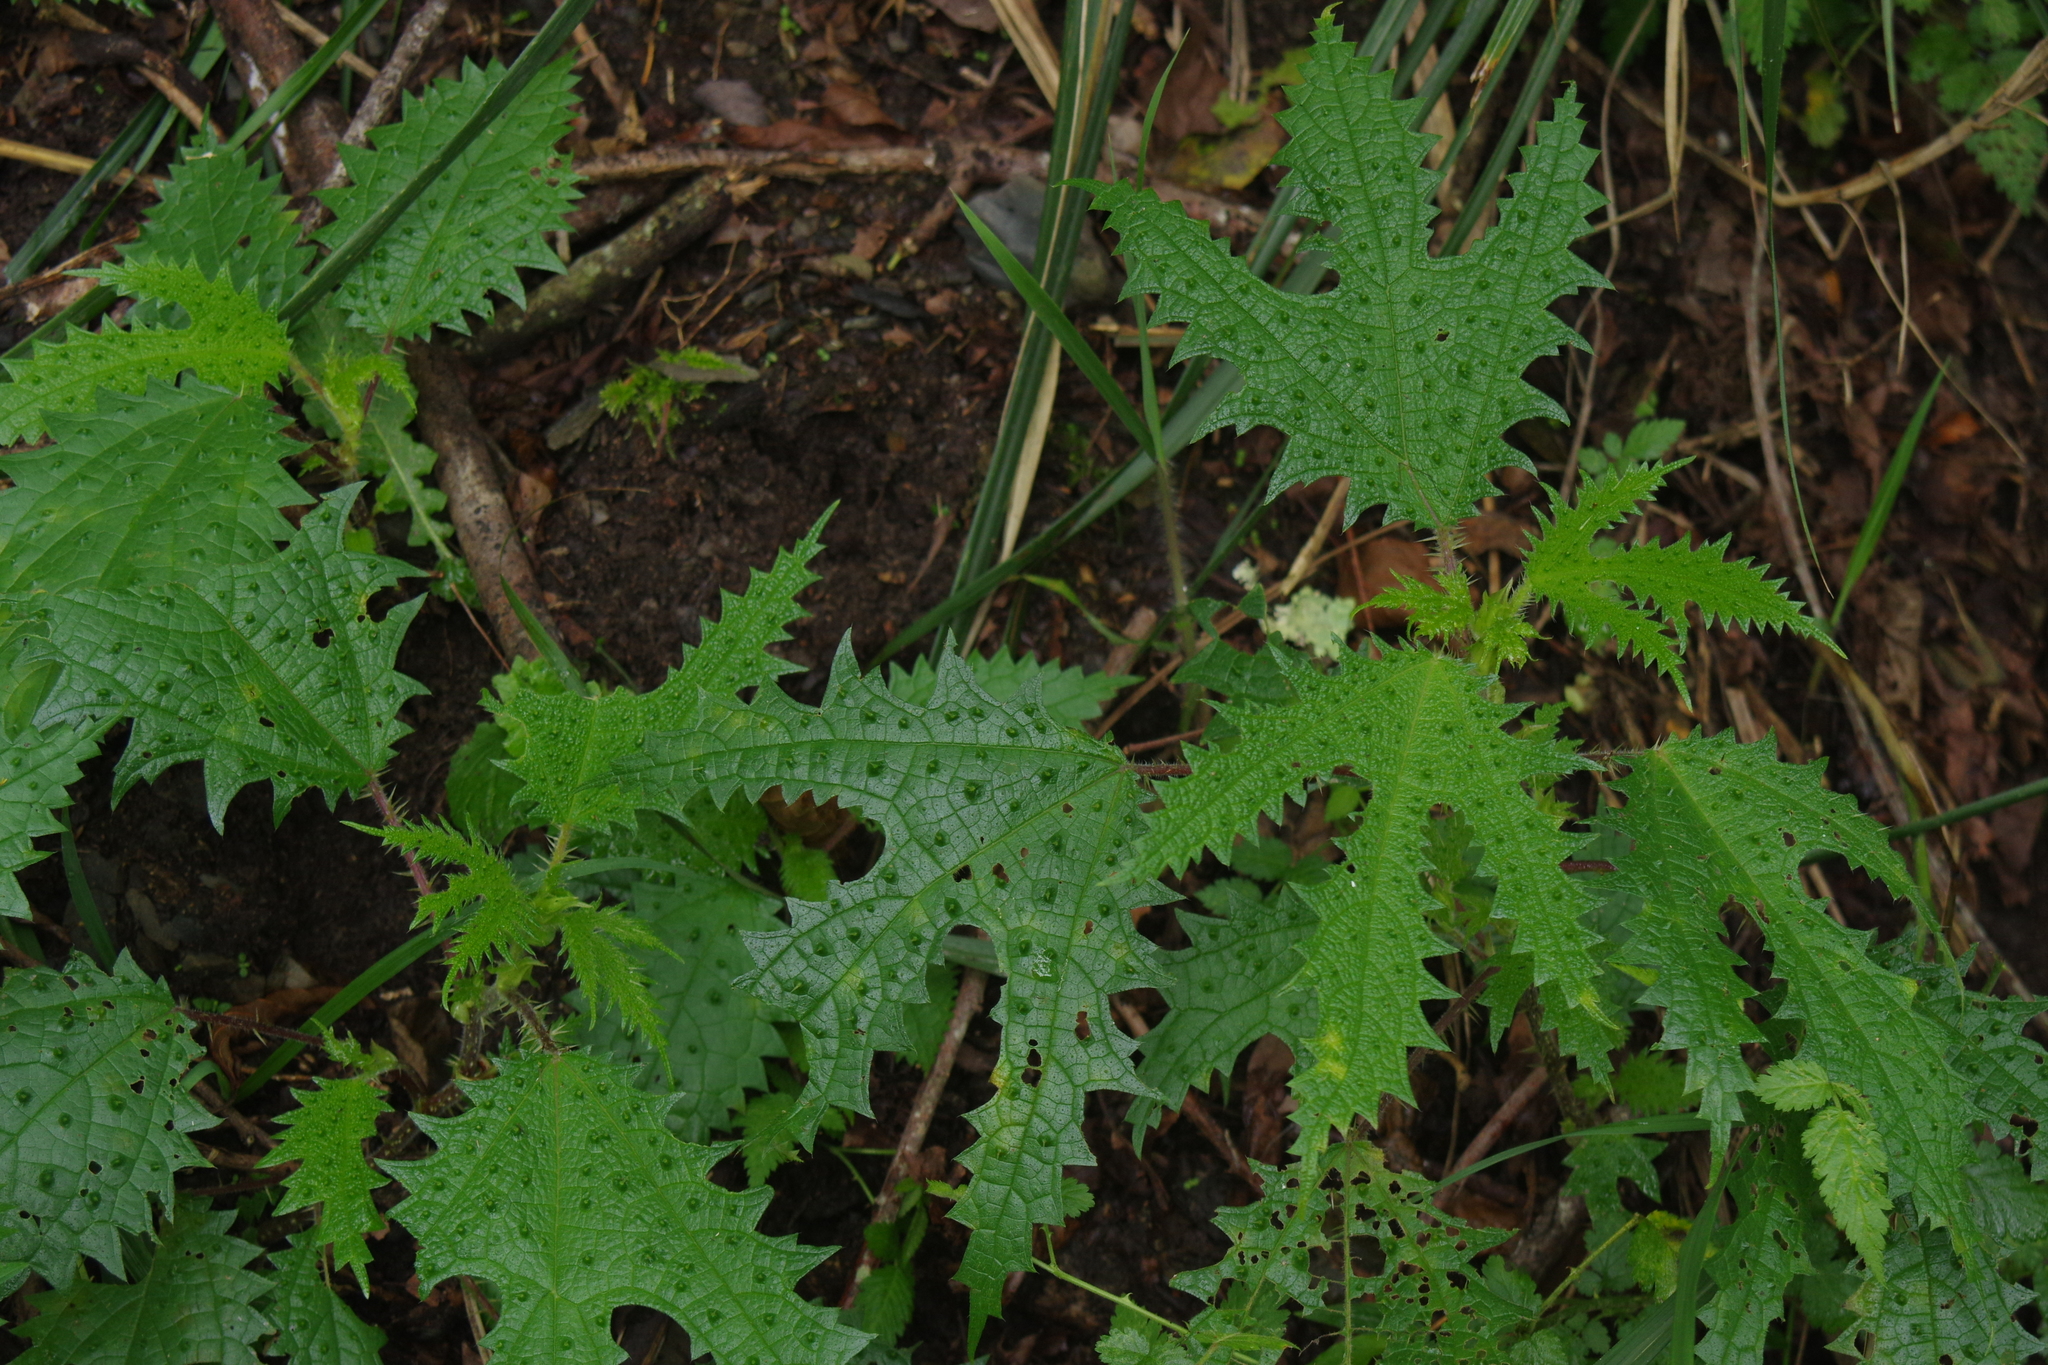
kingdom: Plantae
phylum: Tracheophyta
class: Magnoliopsida
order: Rosales
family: Urticaceae
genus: Girardinia
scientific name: Girardinia diversifolia
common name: Himalayan-nettle
